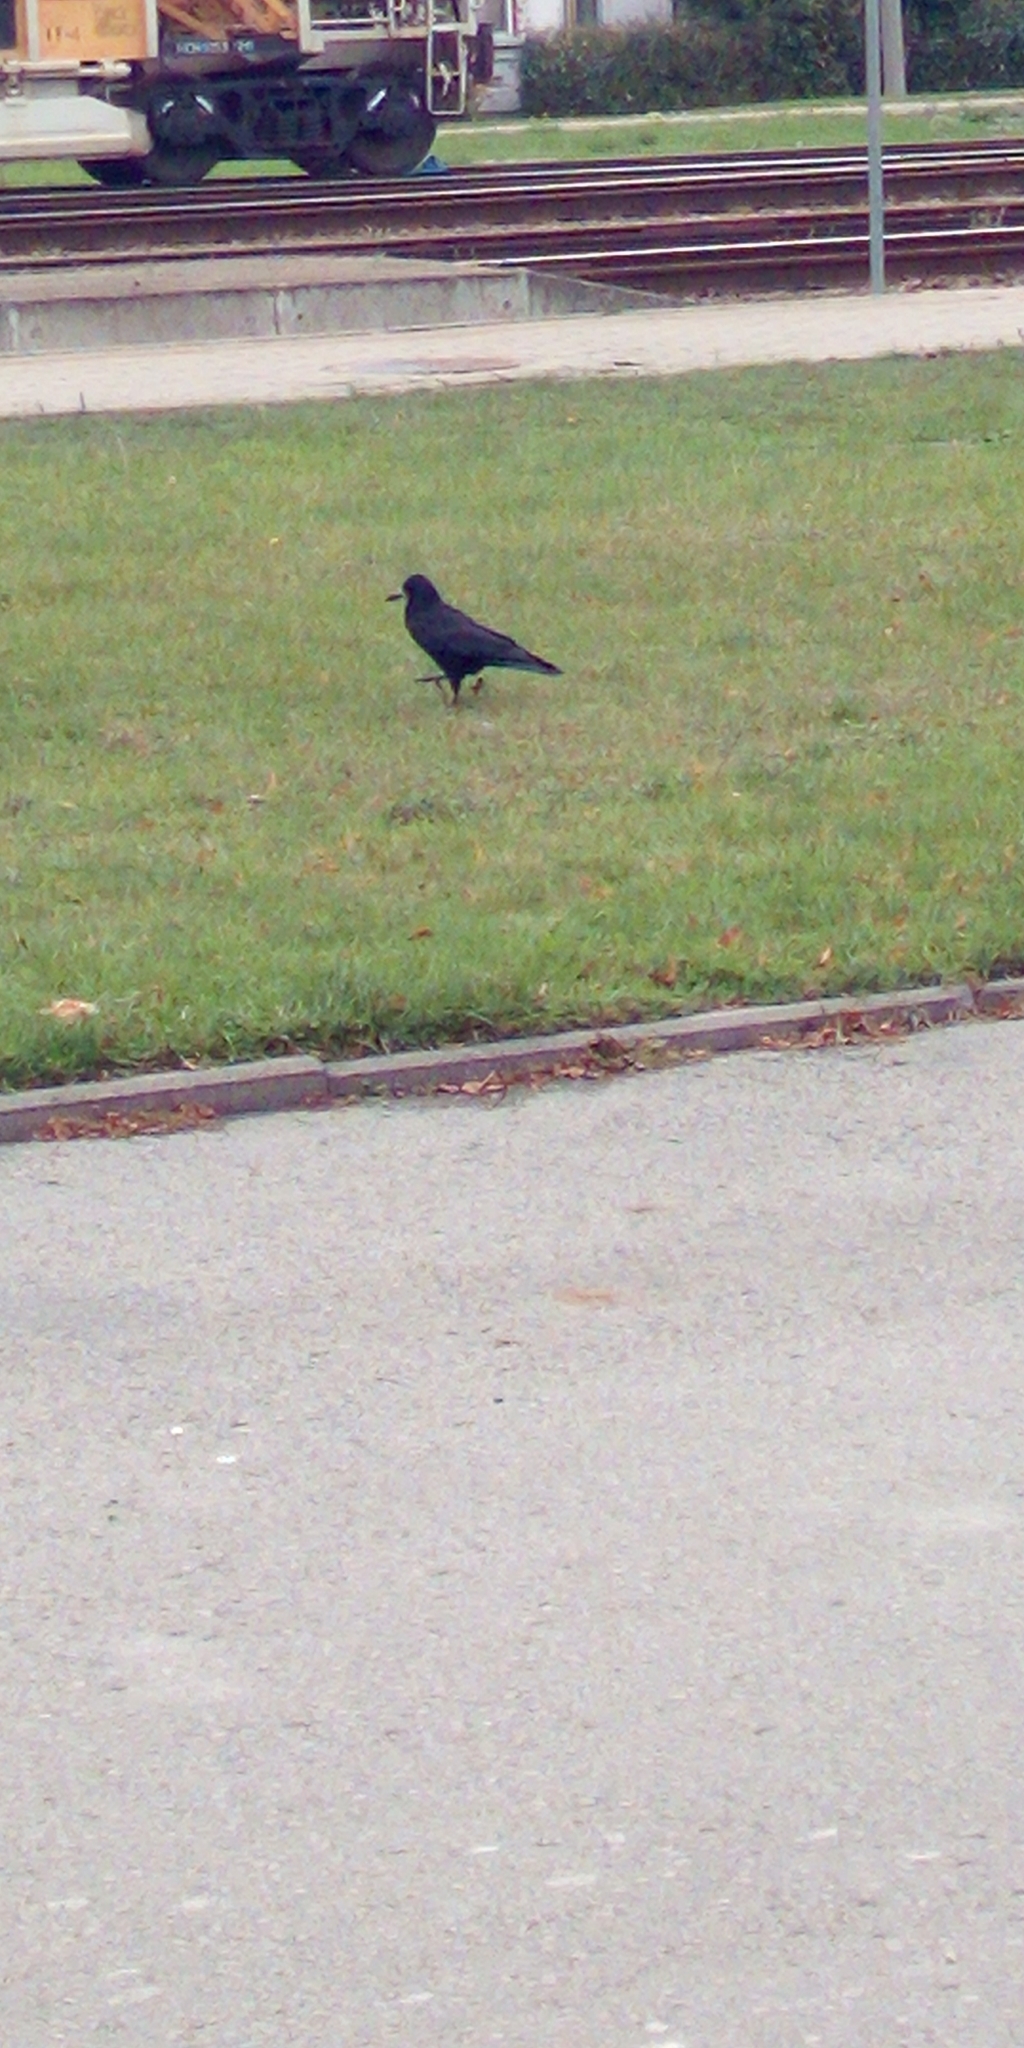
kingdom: Animalia
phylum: Chordata
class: Aves
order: Passeriformes
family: Corvidae
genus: Corvus
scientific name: Corvus frugilegus
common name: Rook
